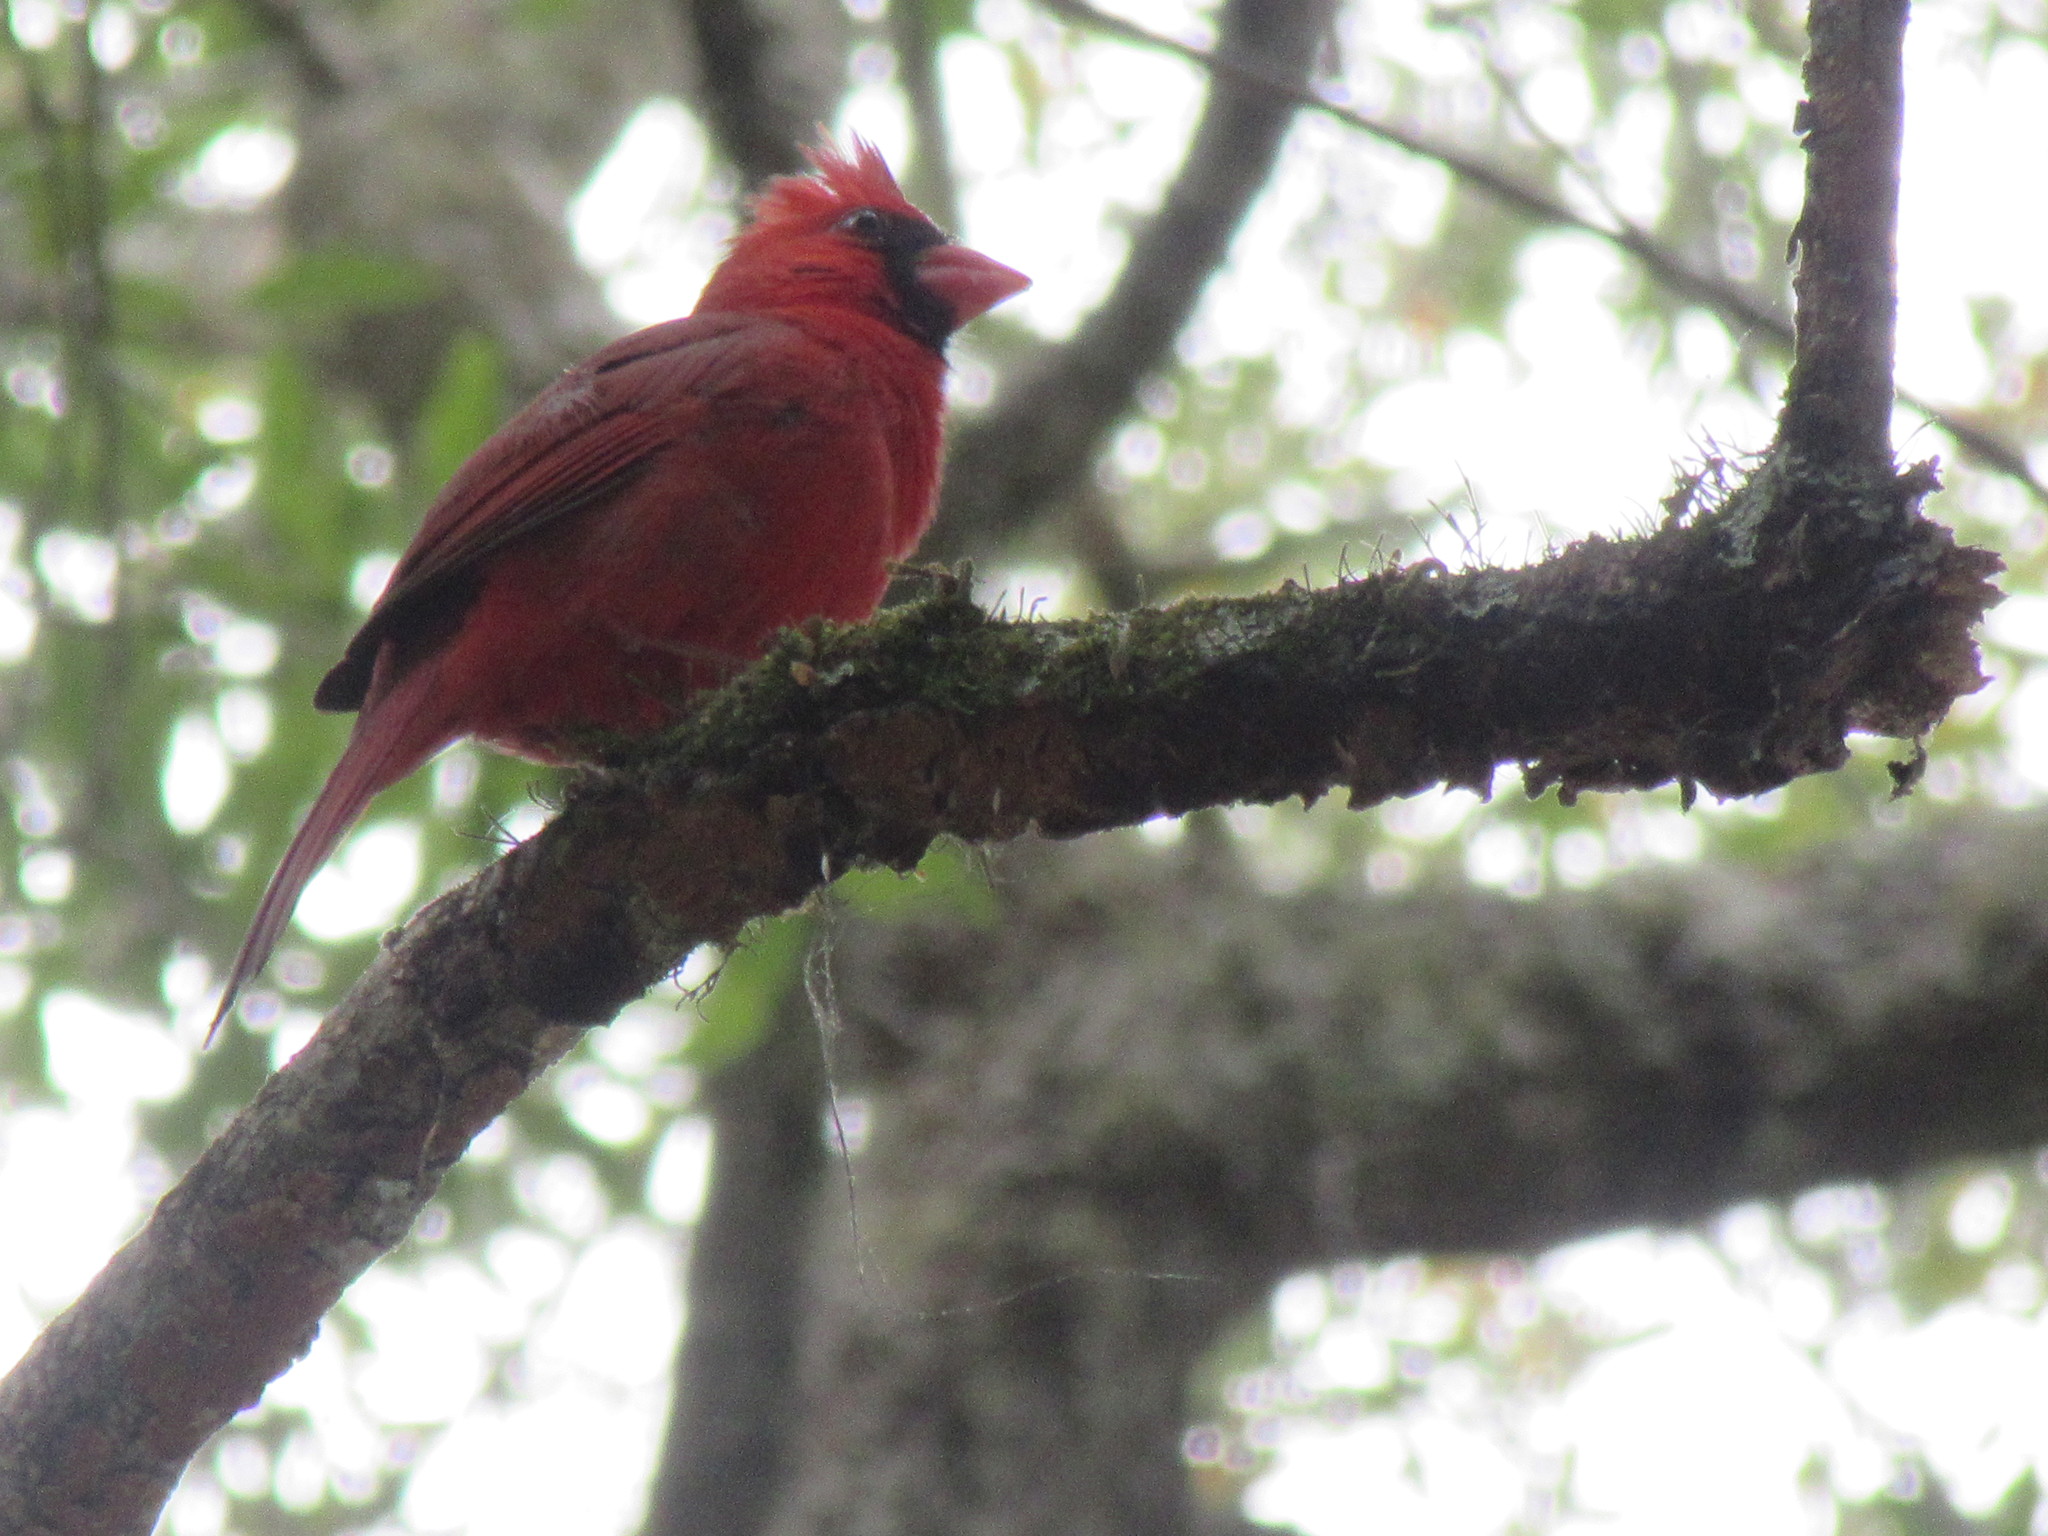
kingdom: Animalia
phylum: Chordata
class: Aves
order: Passeriformes
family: Cardinalidae
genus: Cardinalis
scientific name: Cardinalis cardinalis
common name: Northern cardinal
